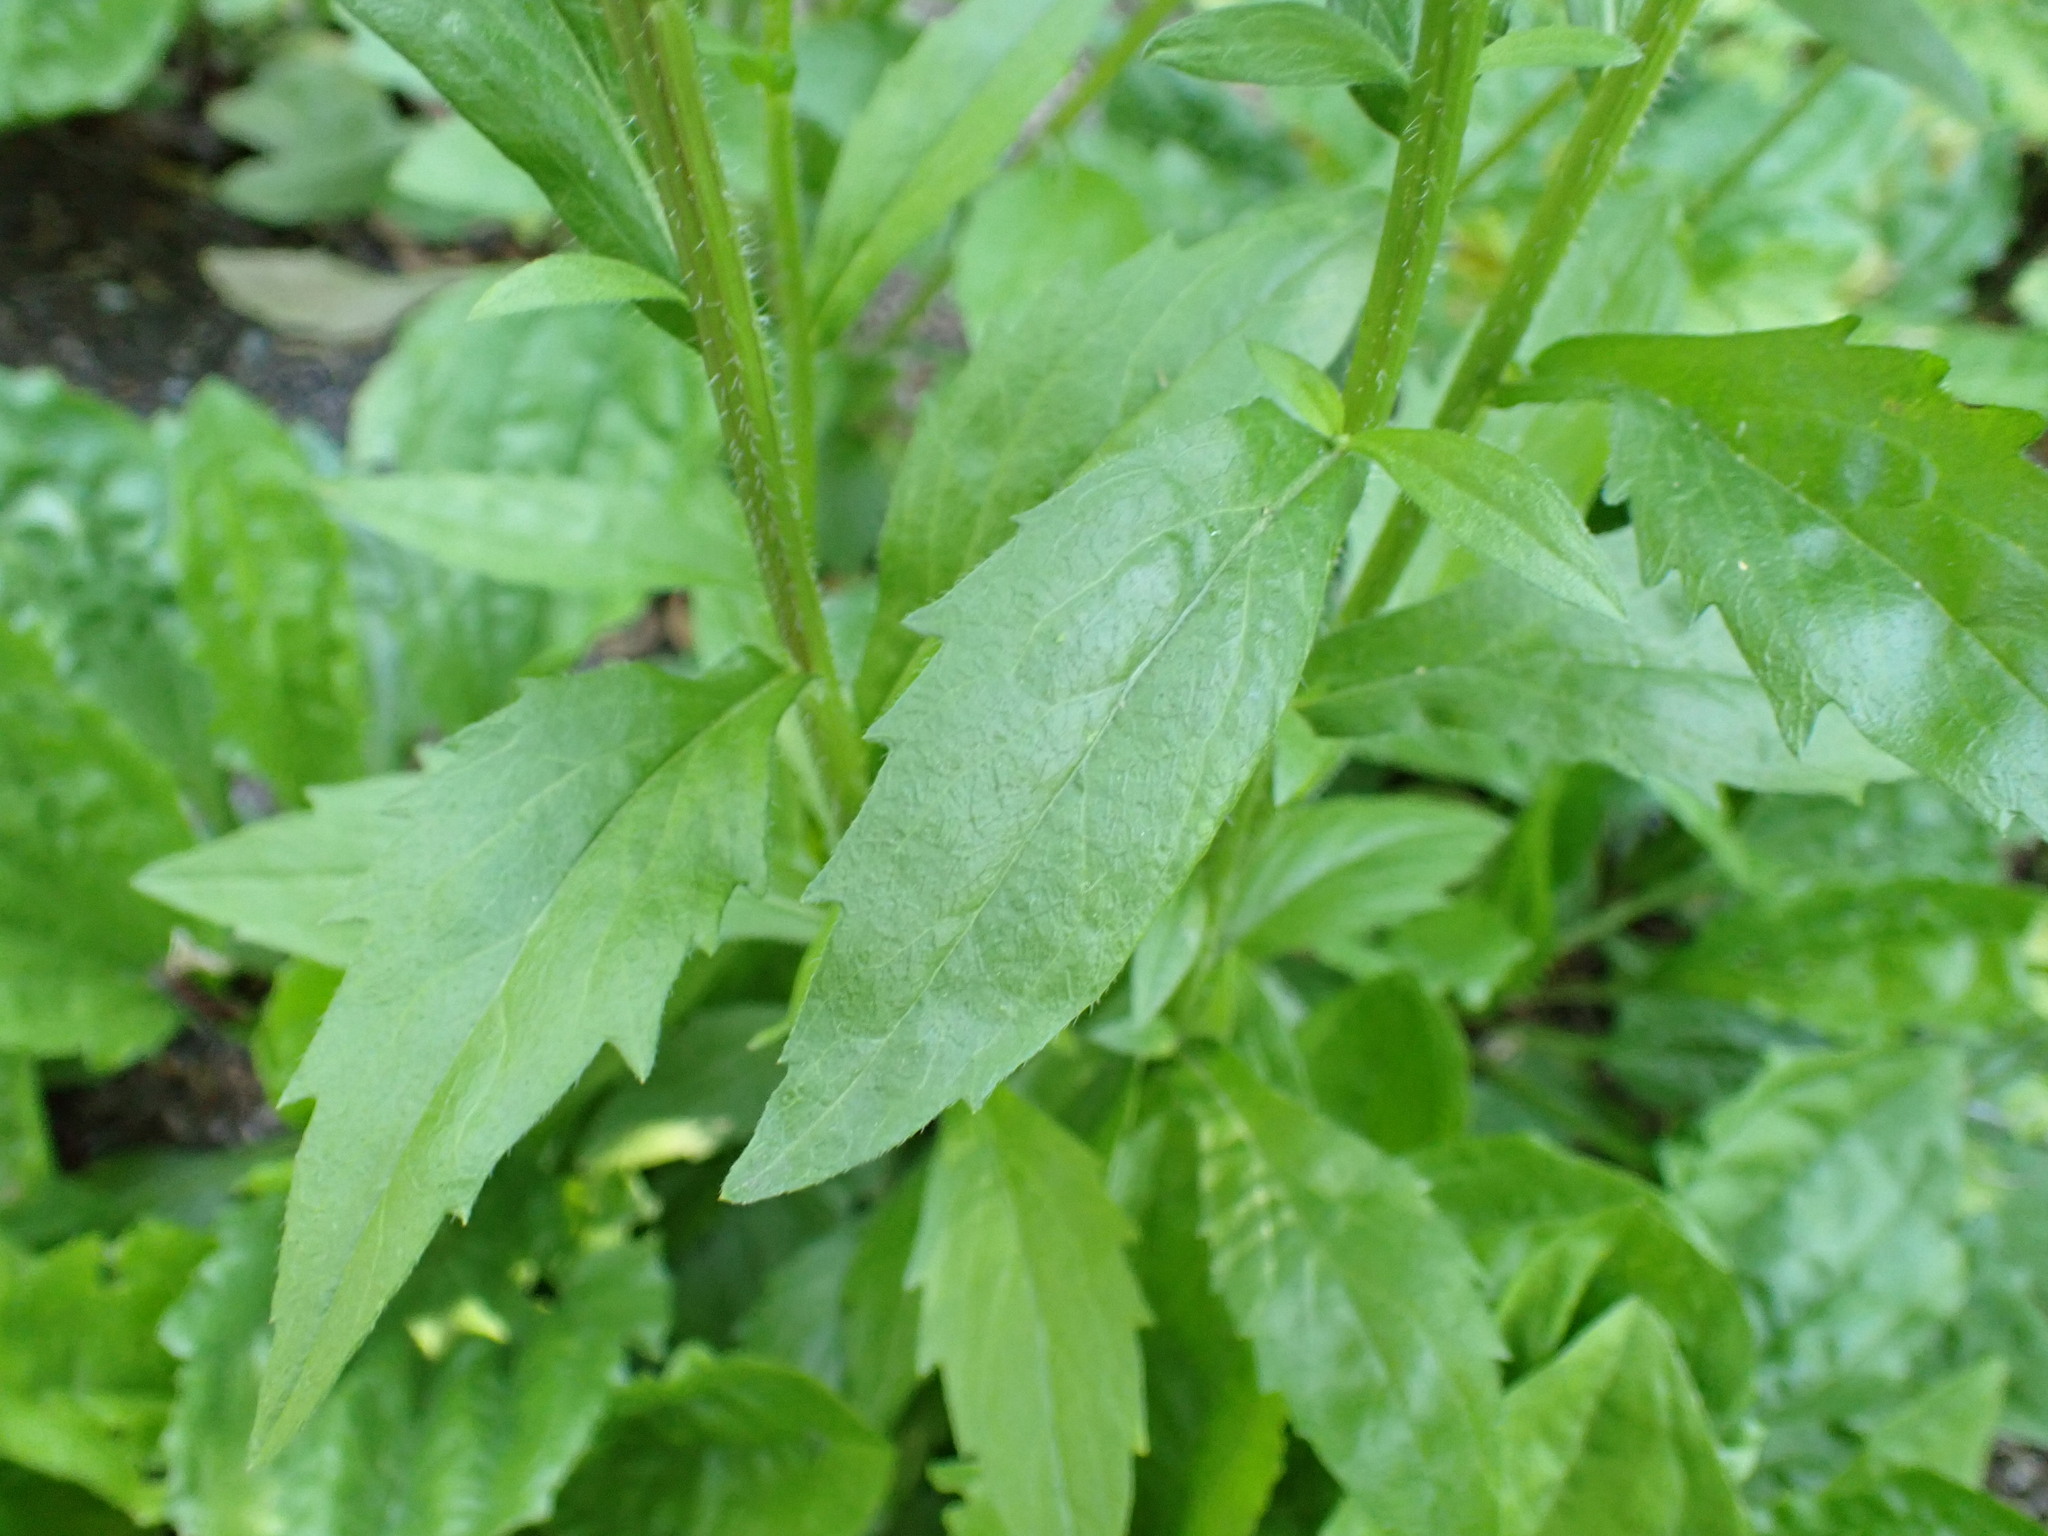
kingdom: Plantae
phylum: Tracheophyta
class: Magnoliopsida
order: Asterales
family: Asteraceae
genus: Erigeron
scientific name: Erigeron annuus
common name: Tall fleabane
